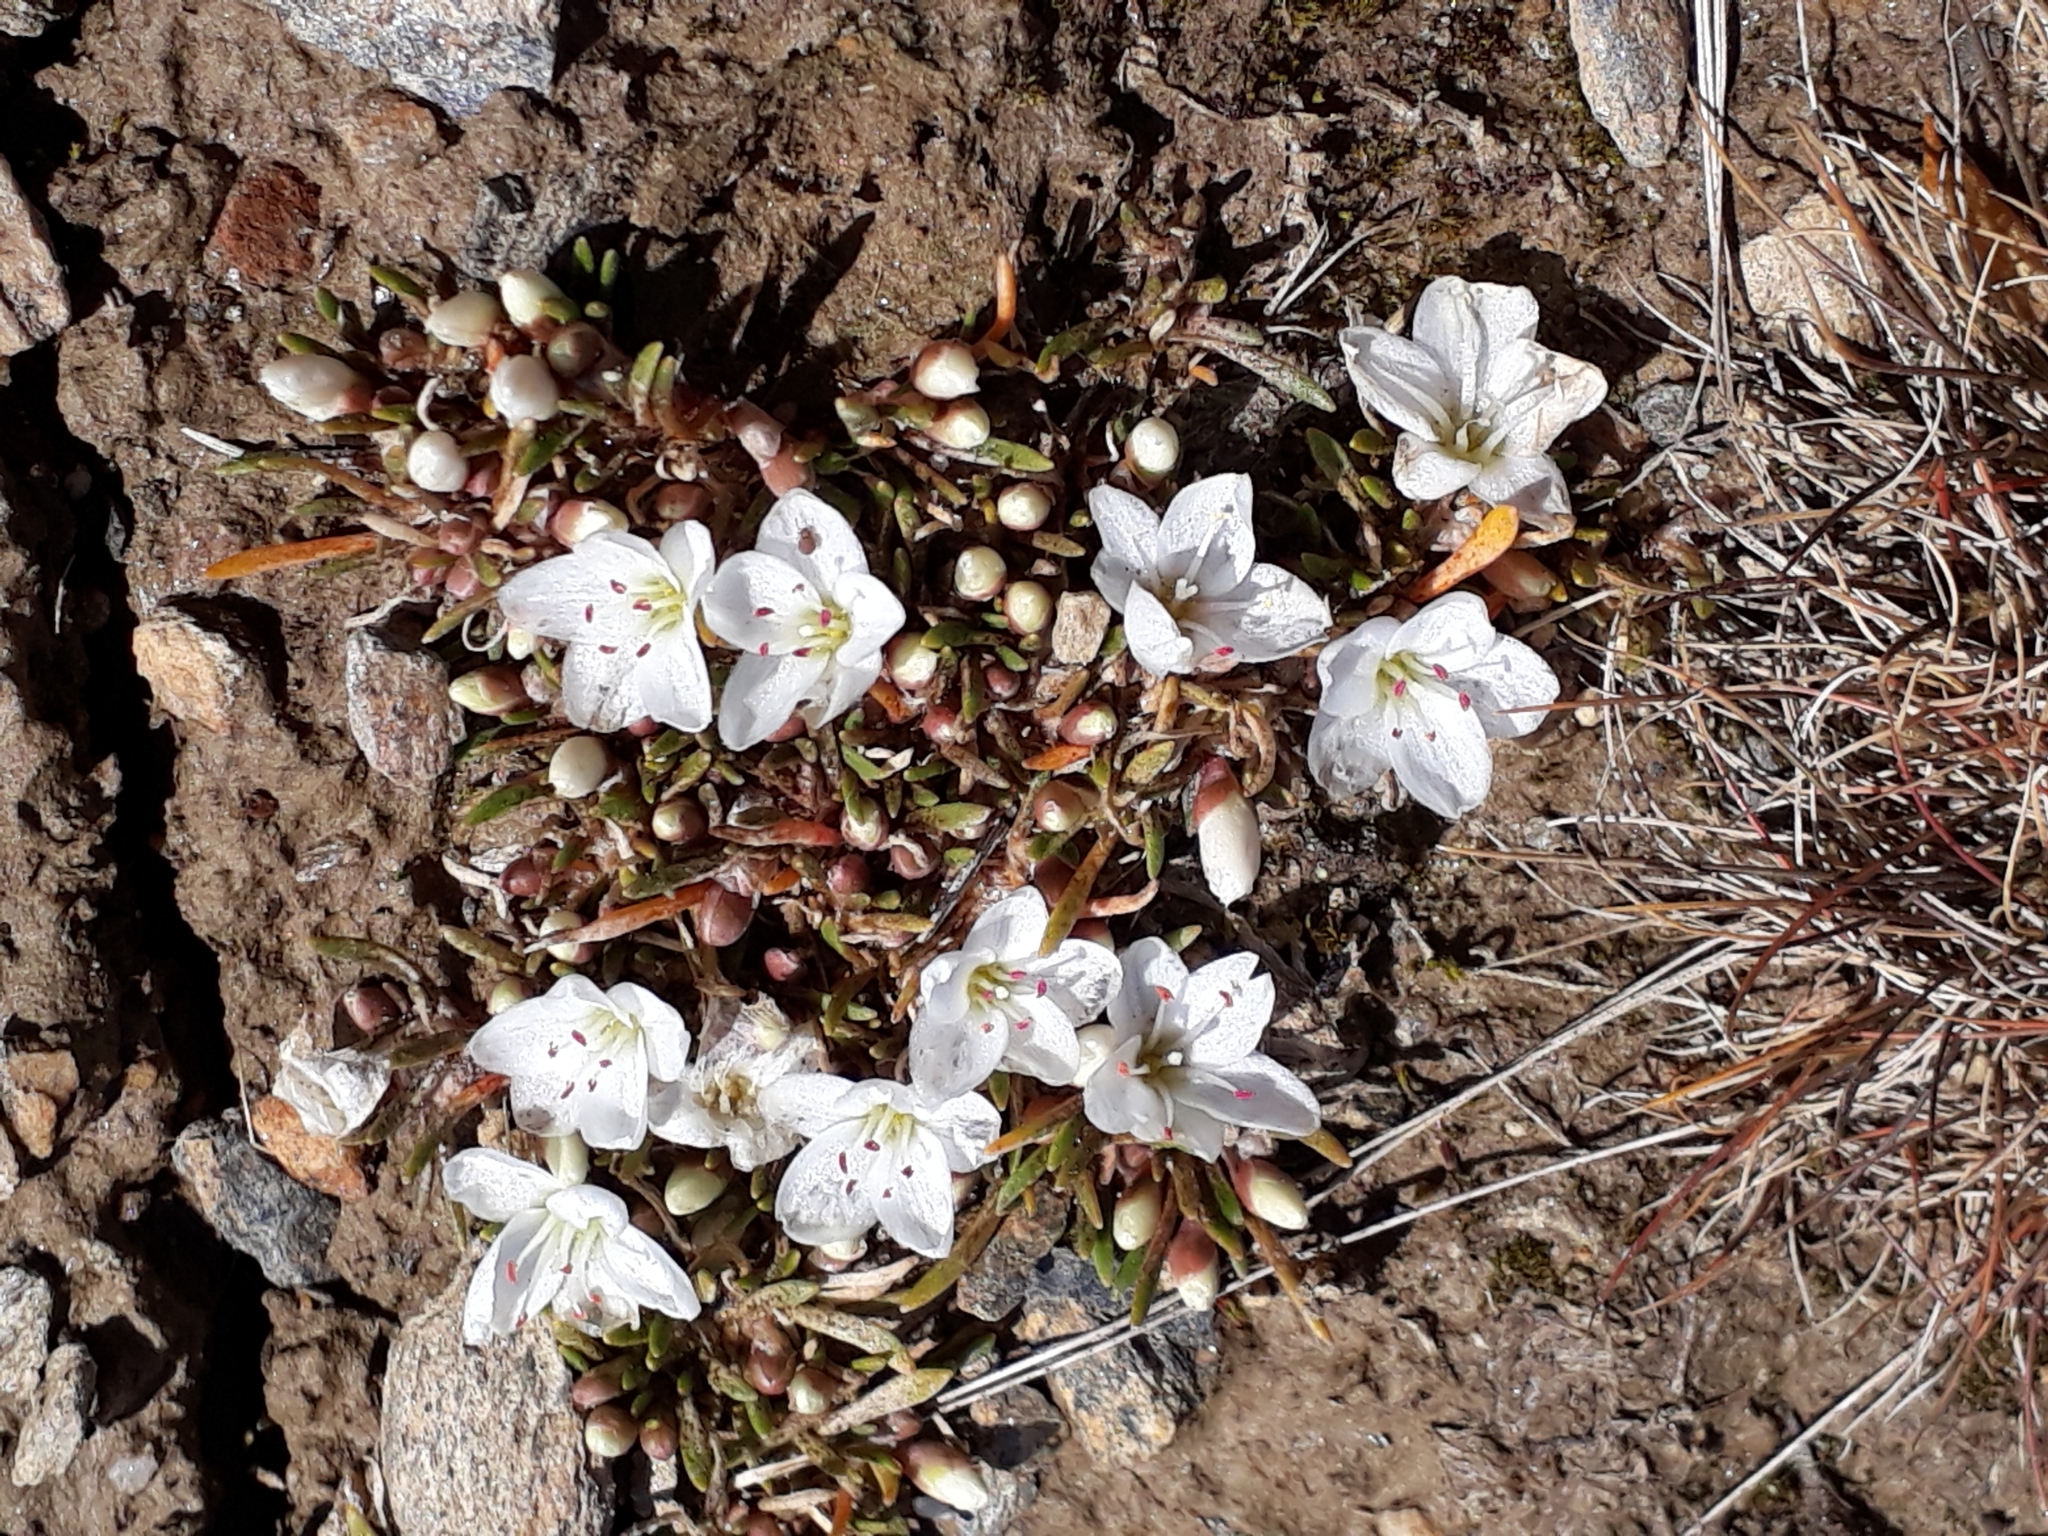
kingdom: Plantae
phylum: Tracheophyta
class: Magnoliopsida
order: Caryophyllales
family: Montiaceae
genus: Montia
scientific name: Montia calycina
